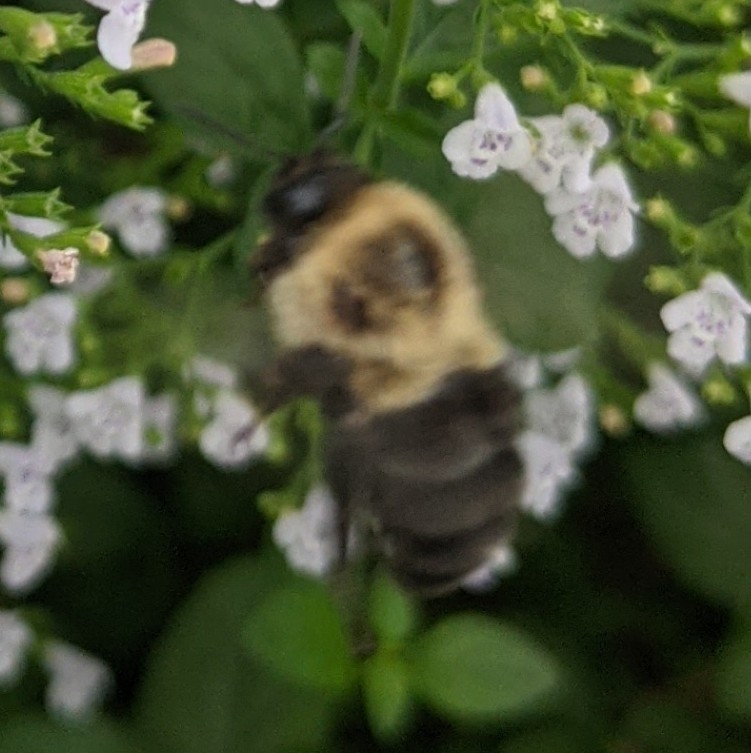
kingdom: Animalia
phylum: Arthropoda
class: Insecta
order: Hymenoptera
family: Apidae
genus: Bombus
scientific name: Bombus impatiens
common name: Common eastern bumble bee
